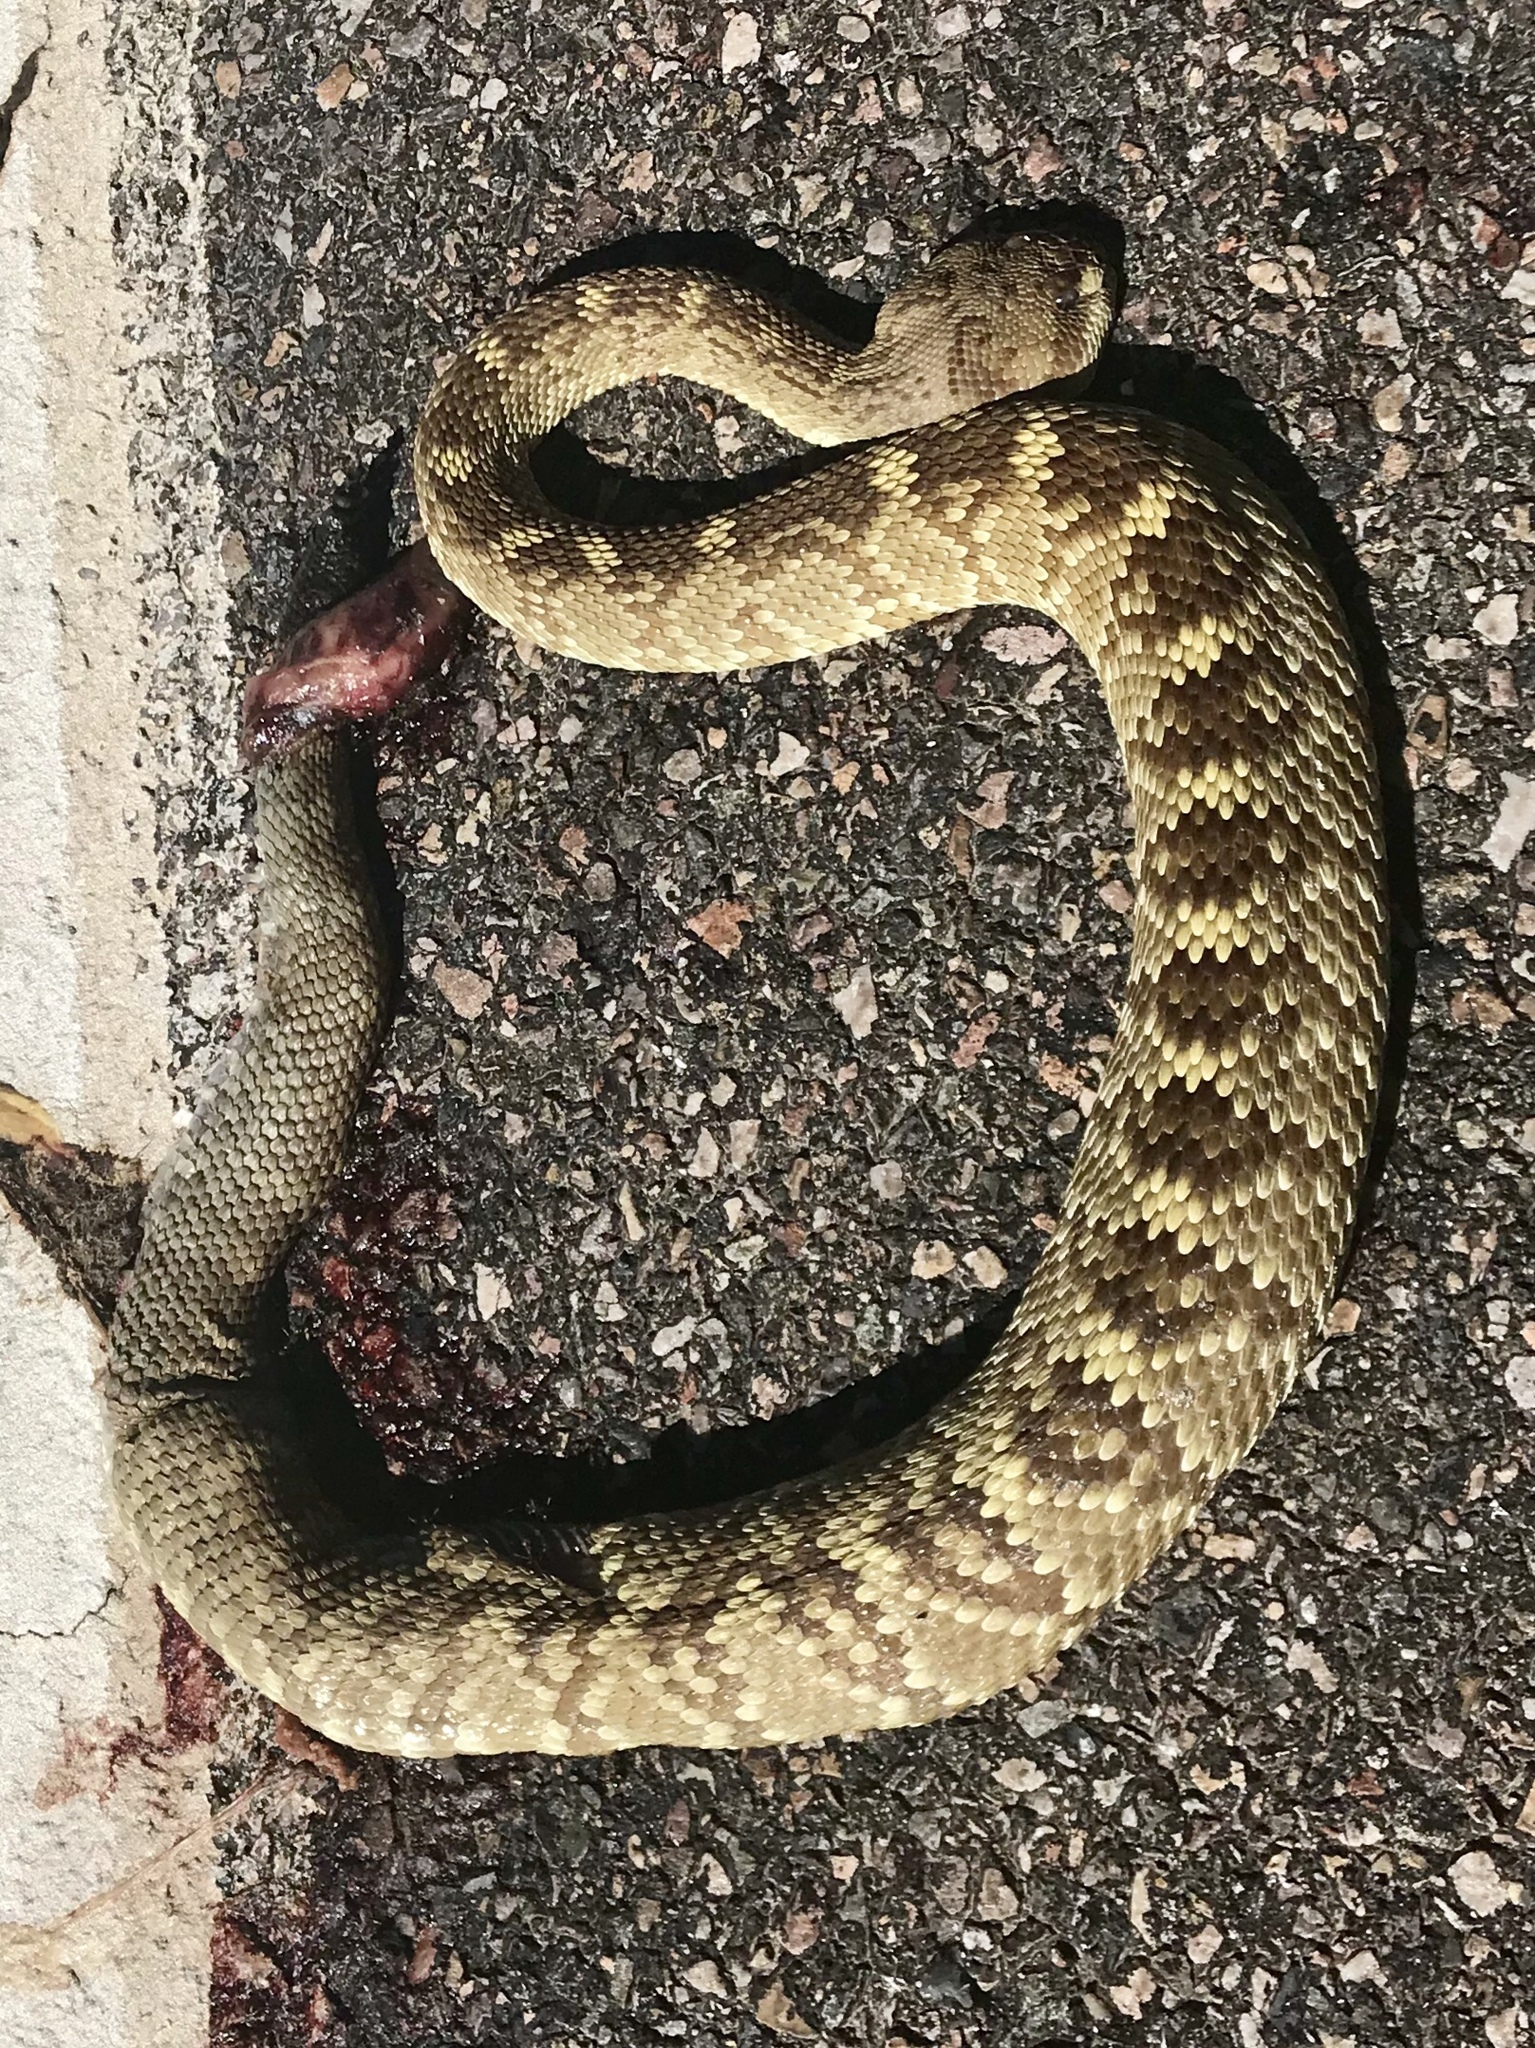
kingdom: Animalia
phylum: Chordata
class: Squamata
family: Viperidae
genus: Crotalus
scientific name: Crotalus molossus
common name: Black tailed rattlesnake
